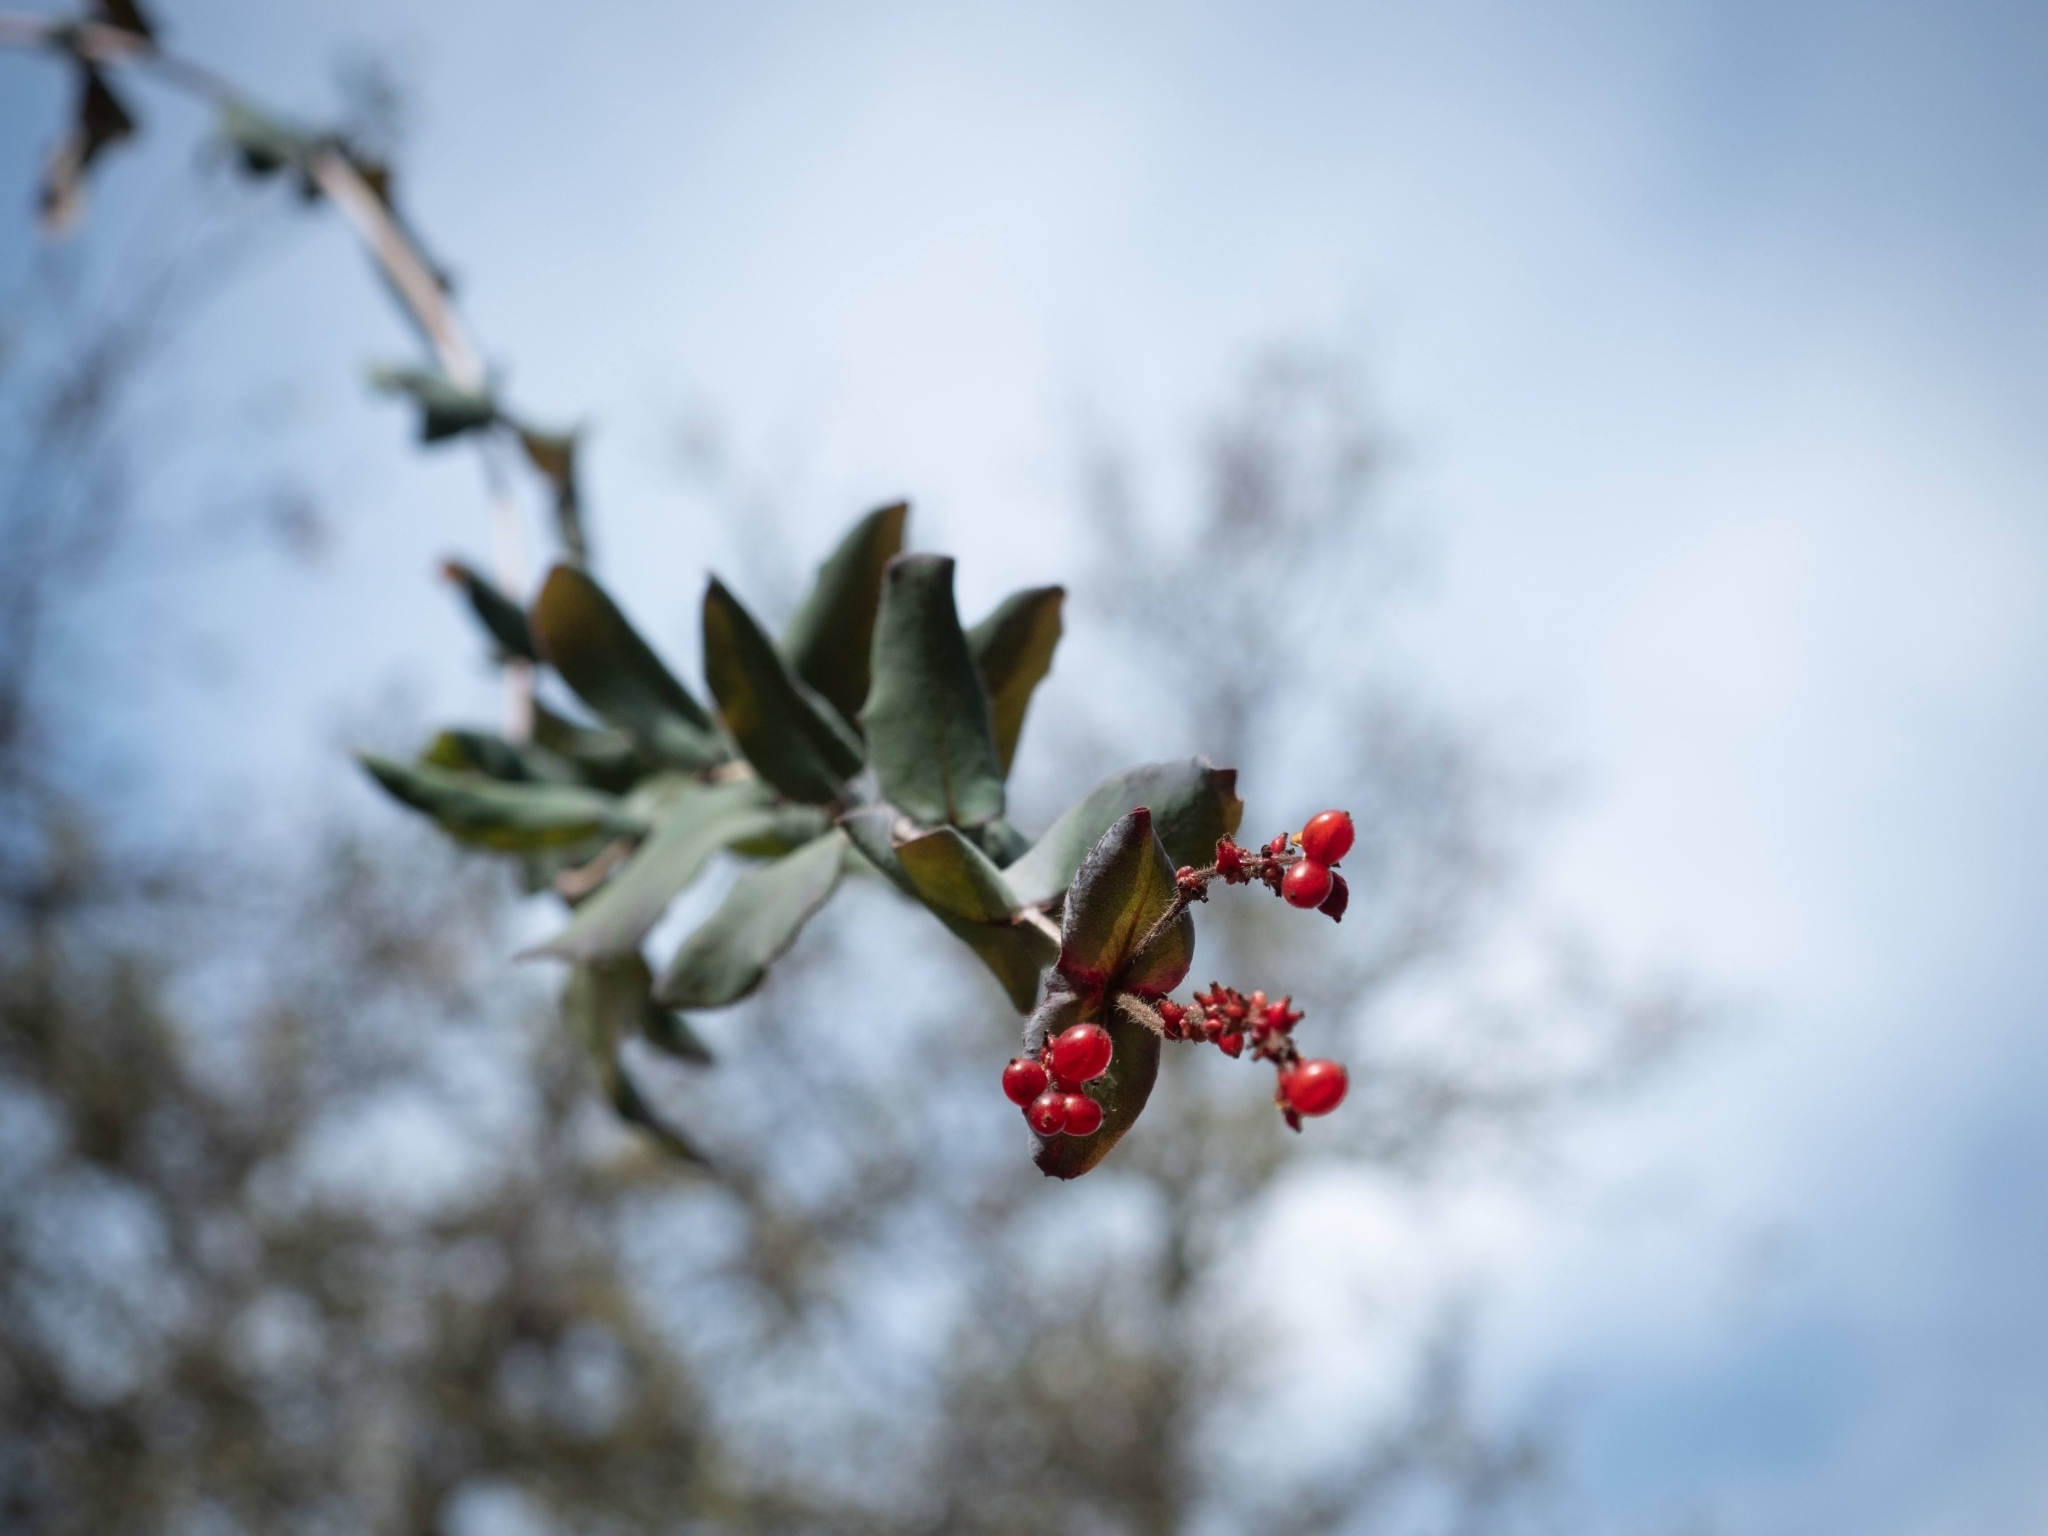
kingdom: Plantae
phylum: Tracheophyta
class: Magnoliopsida
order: Dipsacales
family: Caprifoliaceae
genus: Lonicera
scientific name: Lonicera hispidula
